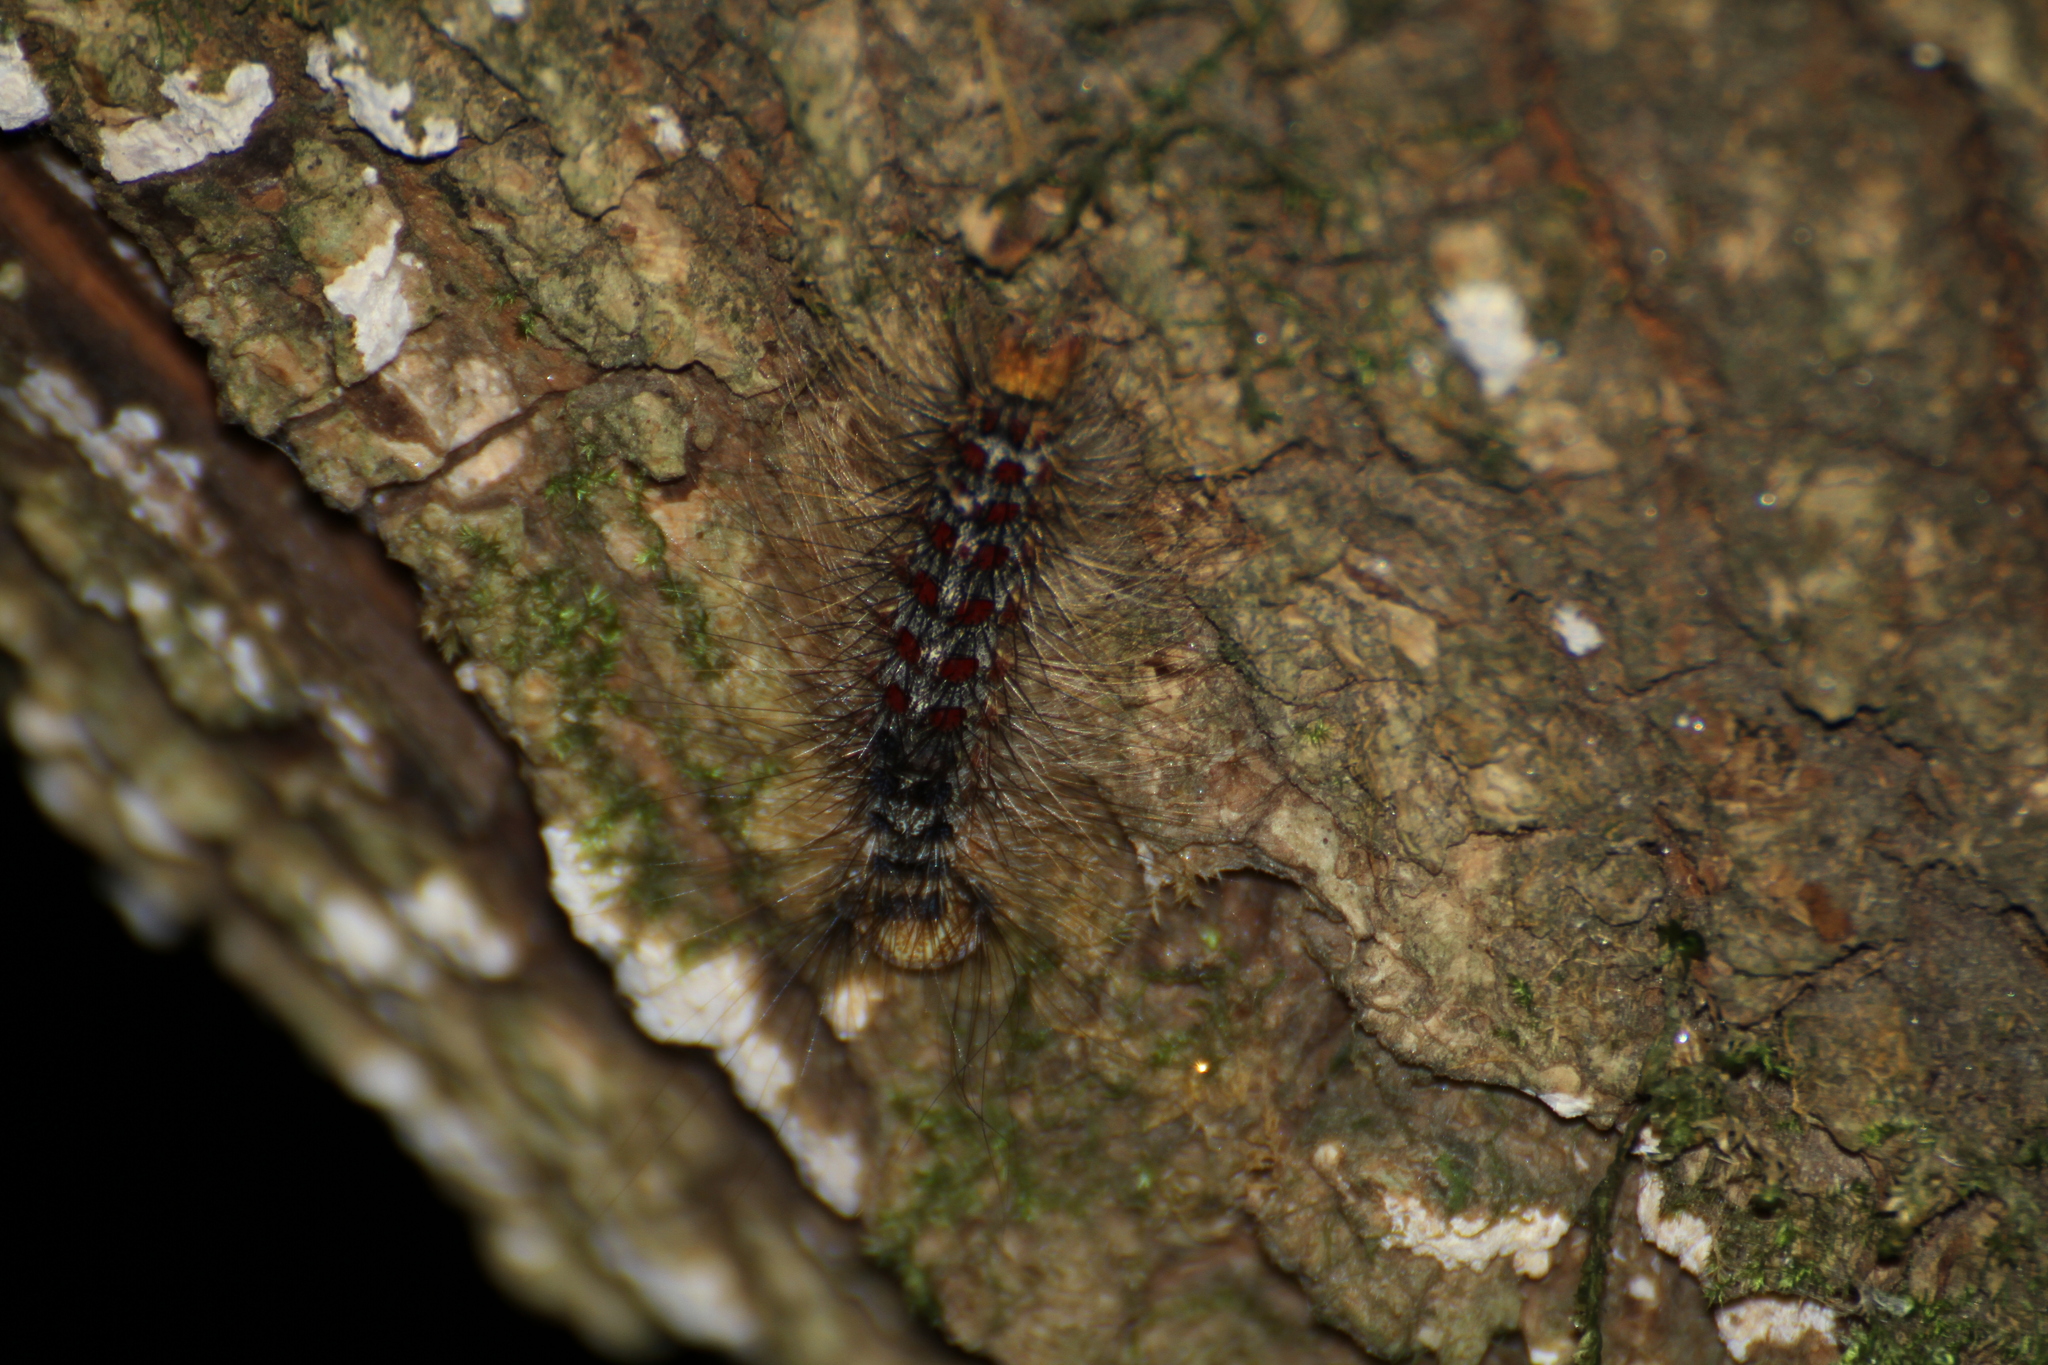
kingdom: Animalia
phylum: Arthropoda
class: Insecta
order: Lepidoptera
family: Erebidae
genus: Lymantria
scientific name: Lymantria dispar
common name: Gypsy moth
